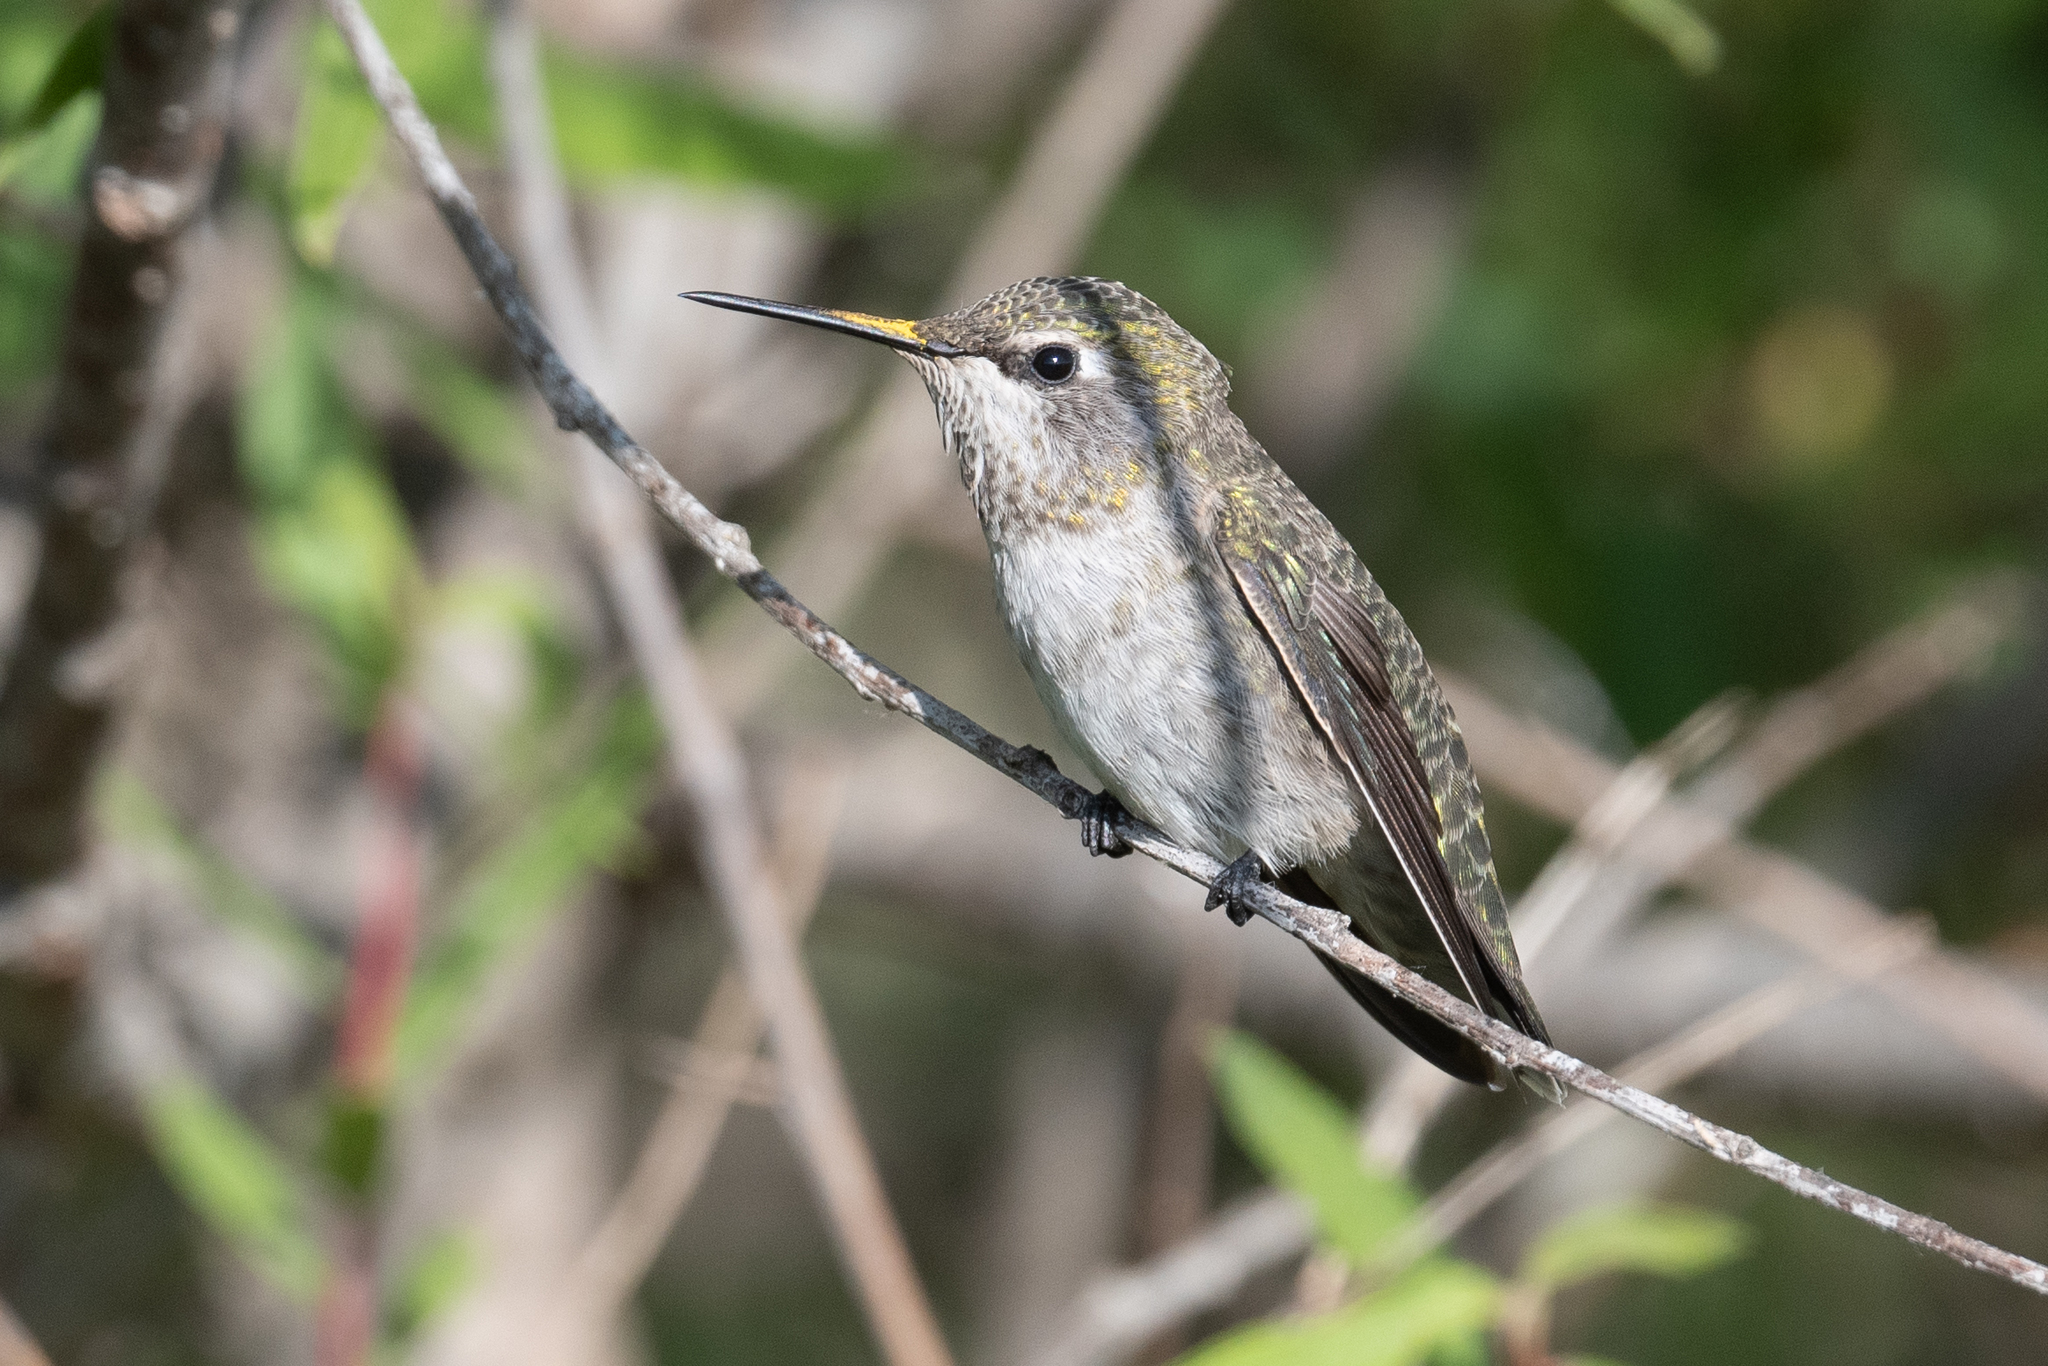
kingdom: Animalia
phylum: Chordata
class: Aves
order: Apodiformes
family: Trochilidae
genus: Calypte
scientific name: Calypte anna
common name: Anna's hummingbird
